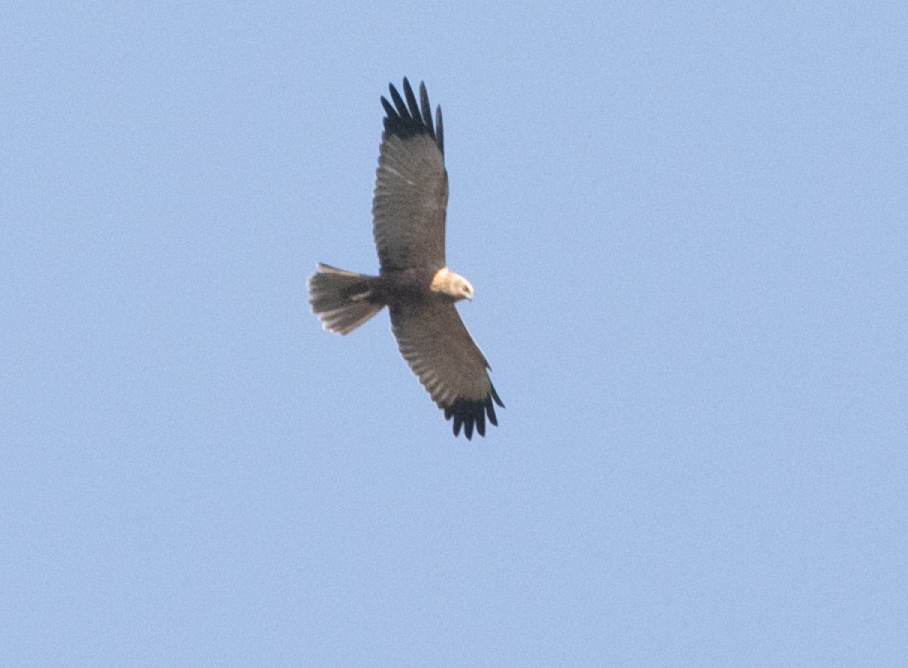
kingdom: Animalia
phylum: Chordata
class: Aves
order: Accipitriformes
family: Accipitridae
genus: Circus
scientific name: Circus aeruginosus
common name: Western marsh harrier
